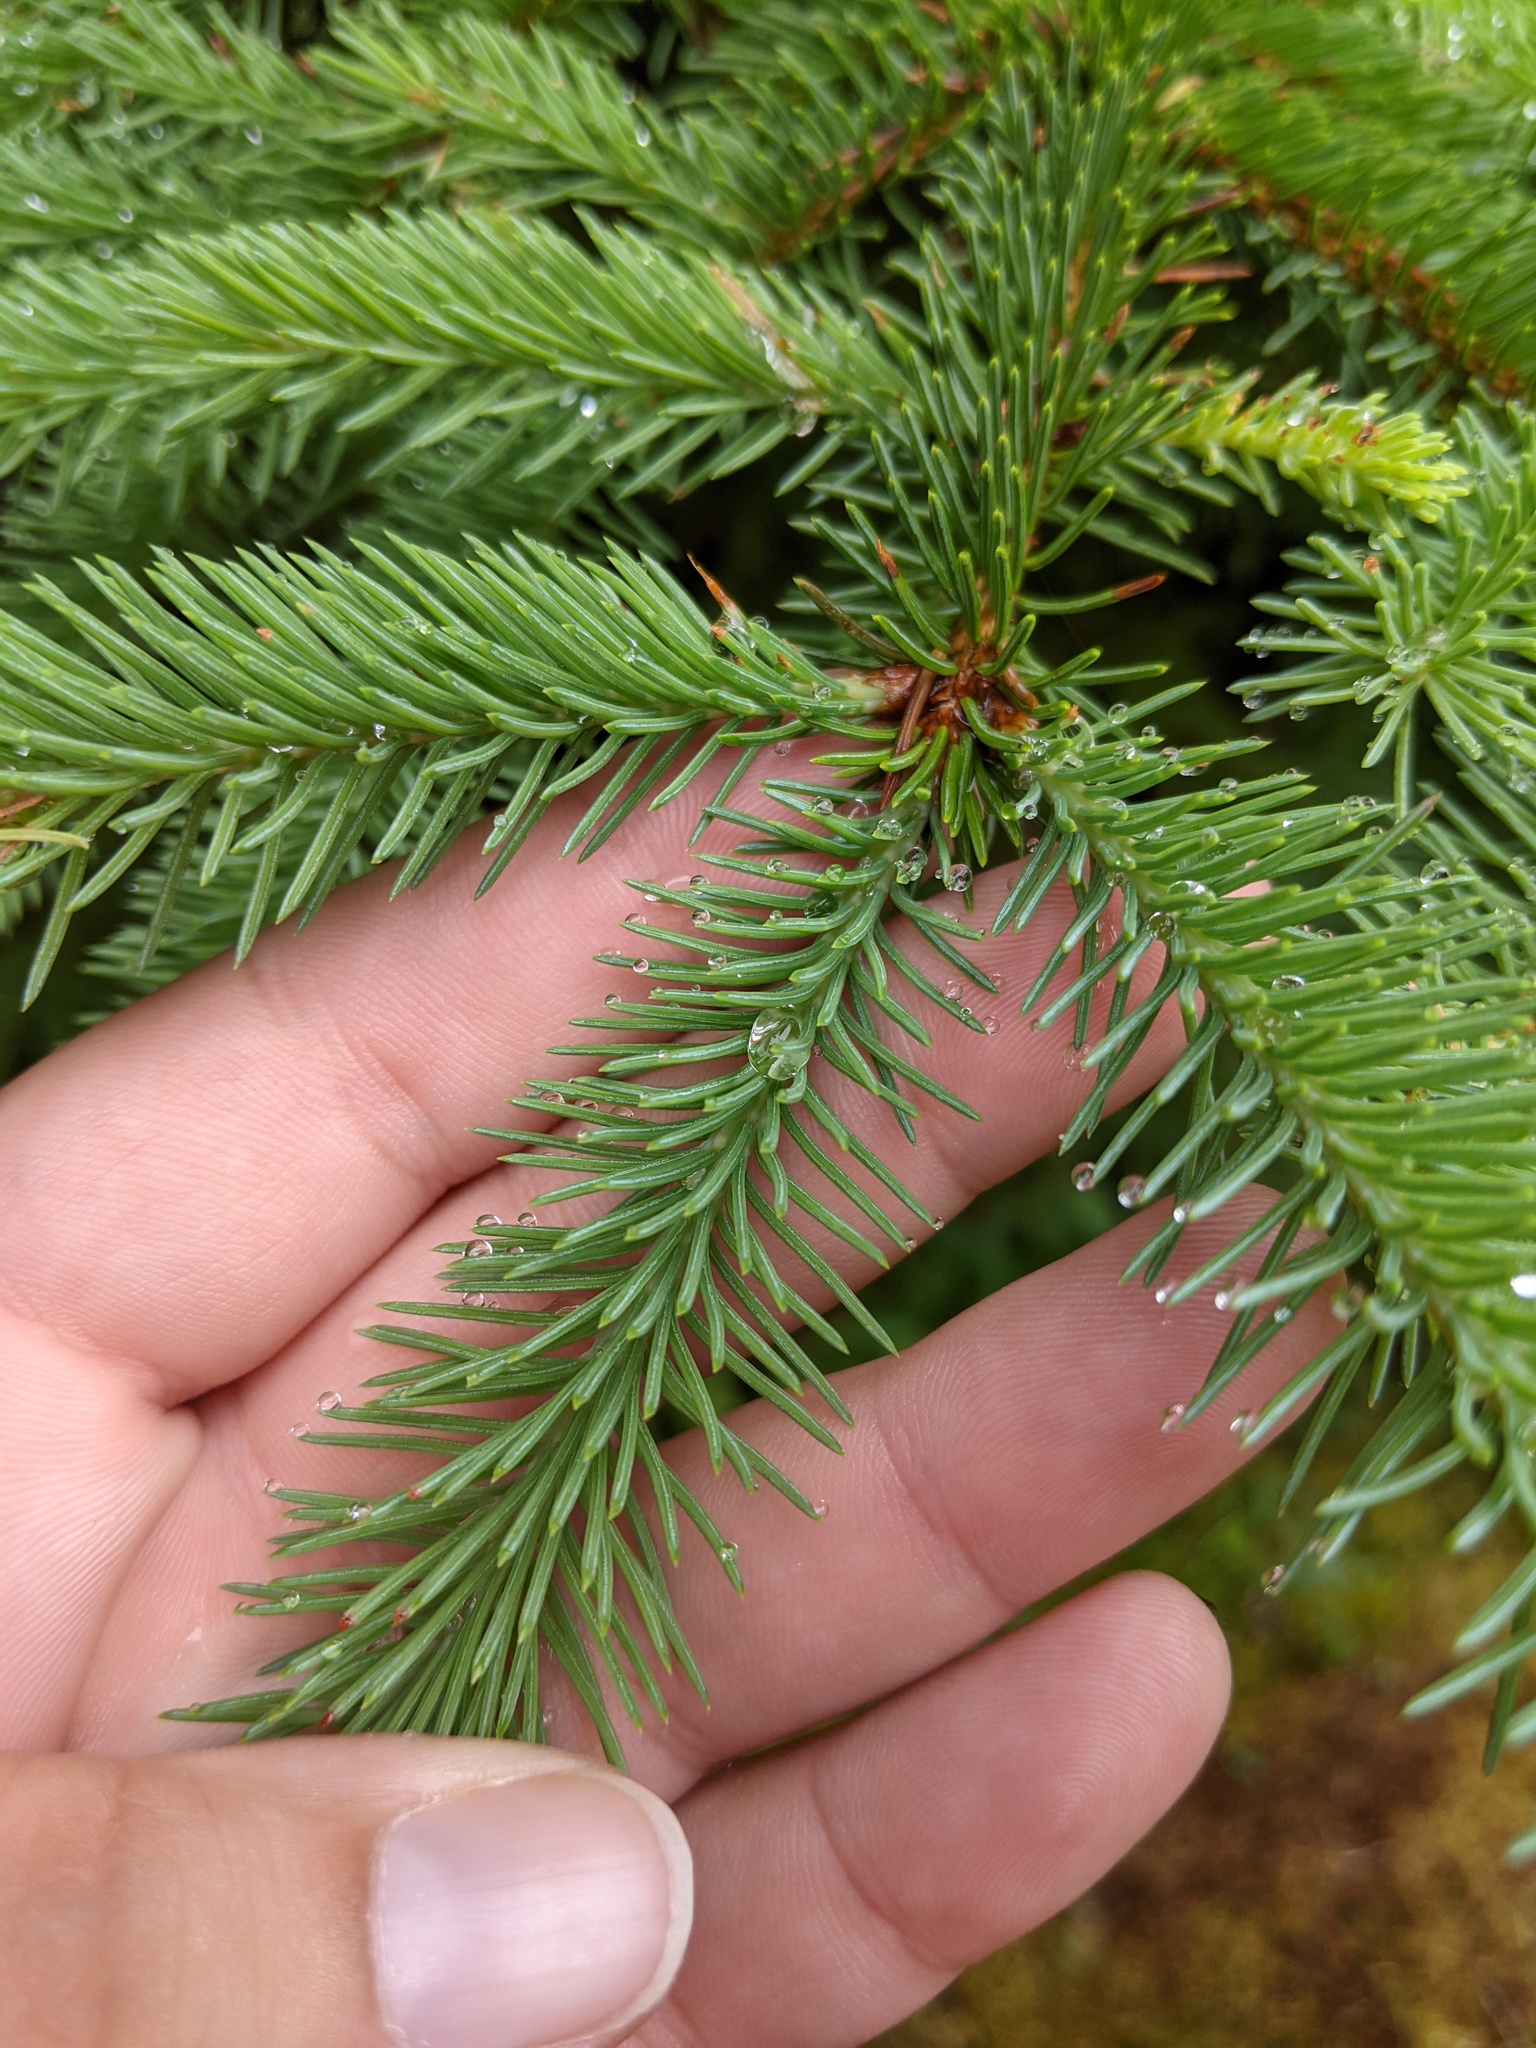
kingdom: Plantae
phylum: Tracheophyta
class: Pinopsida
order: Pinales
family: Pinaceae
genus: Picea
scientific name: Picea glauca
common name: White spruce
